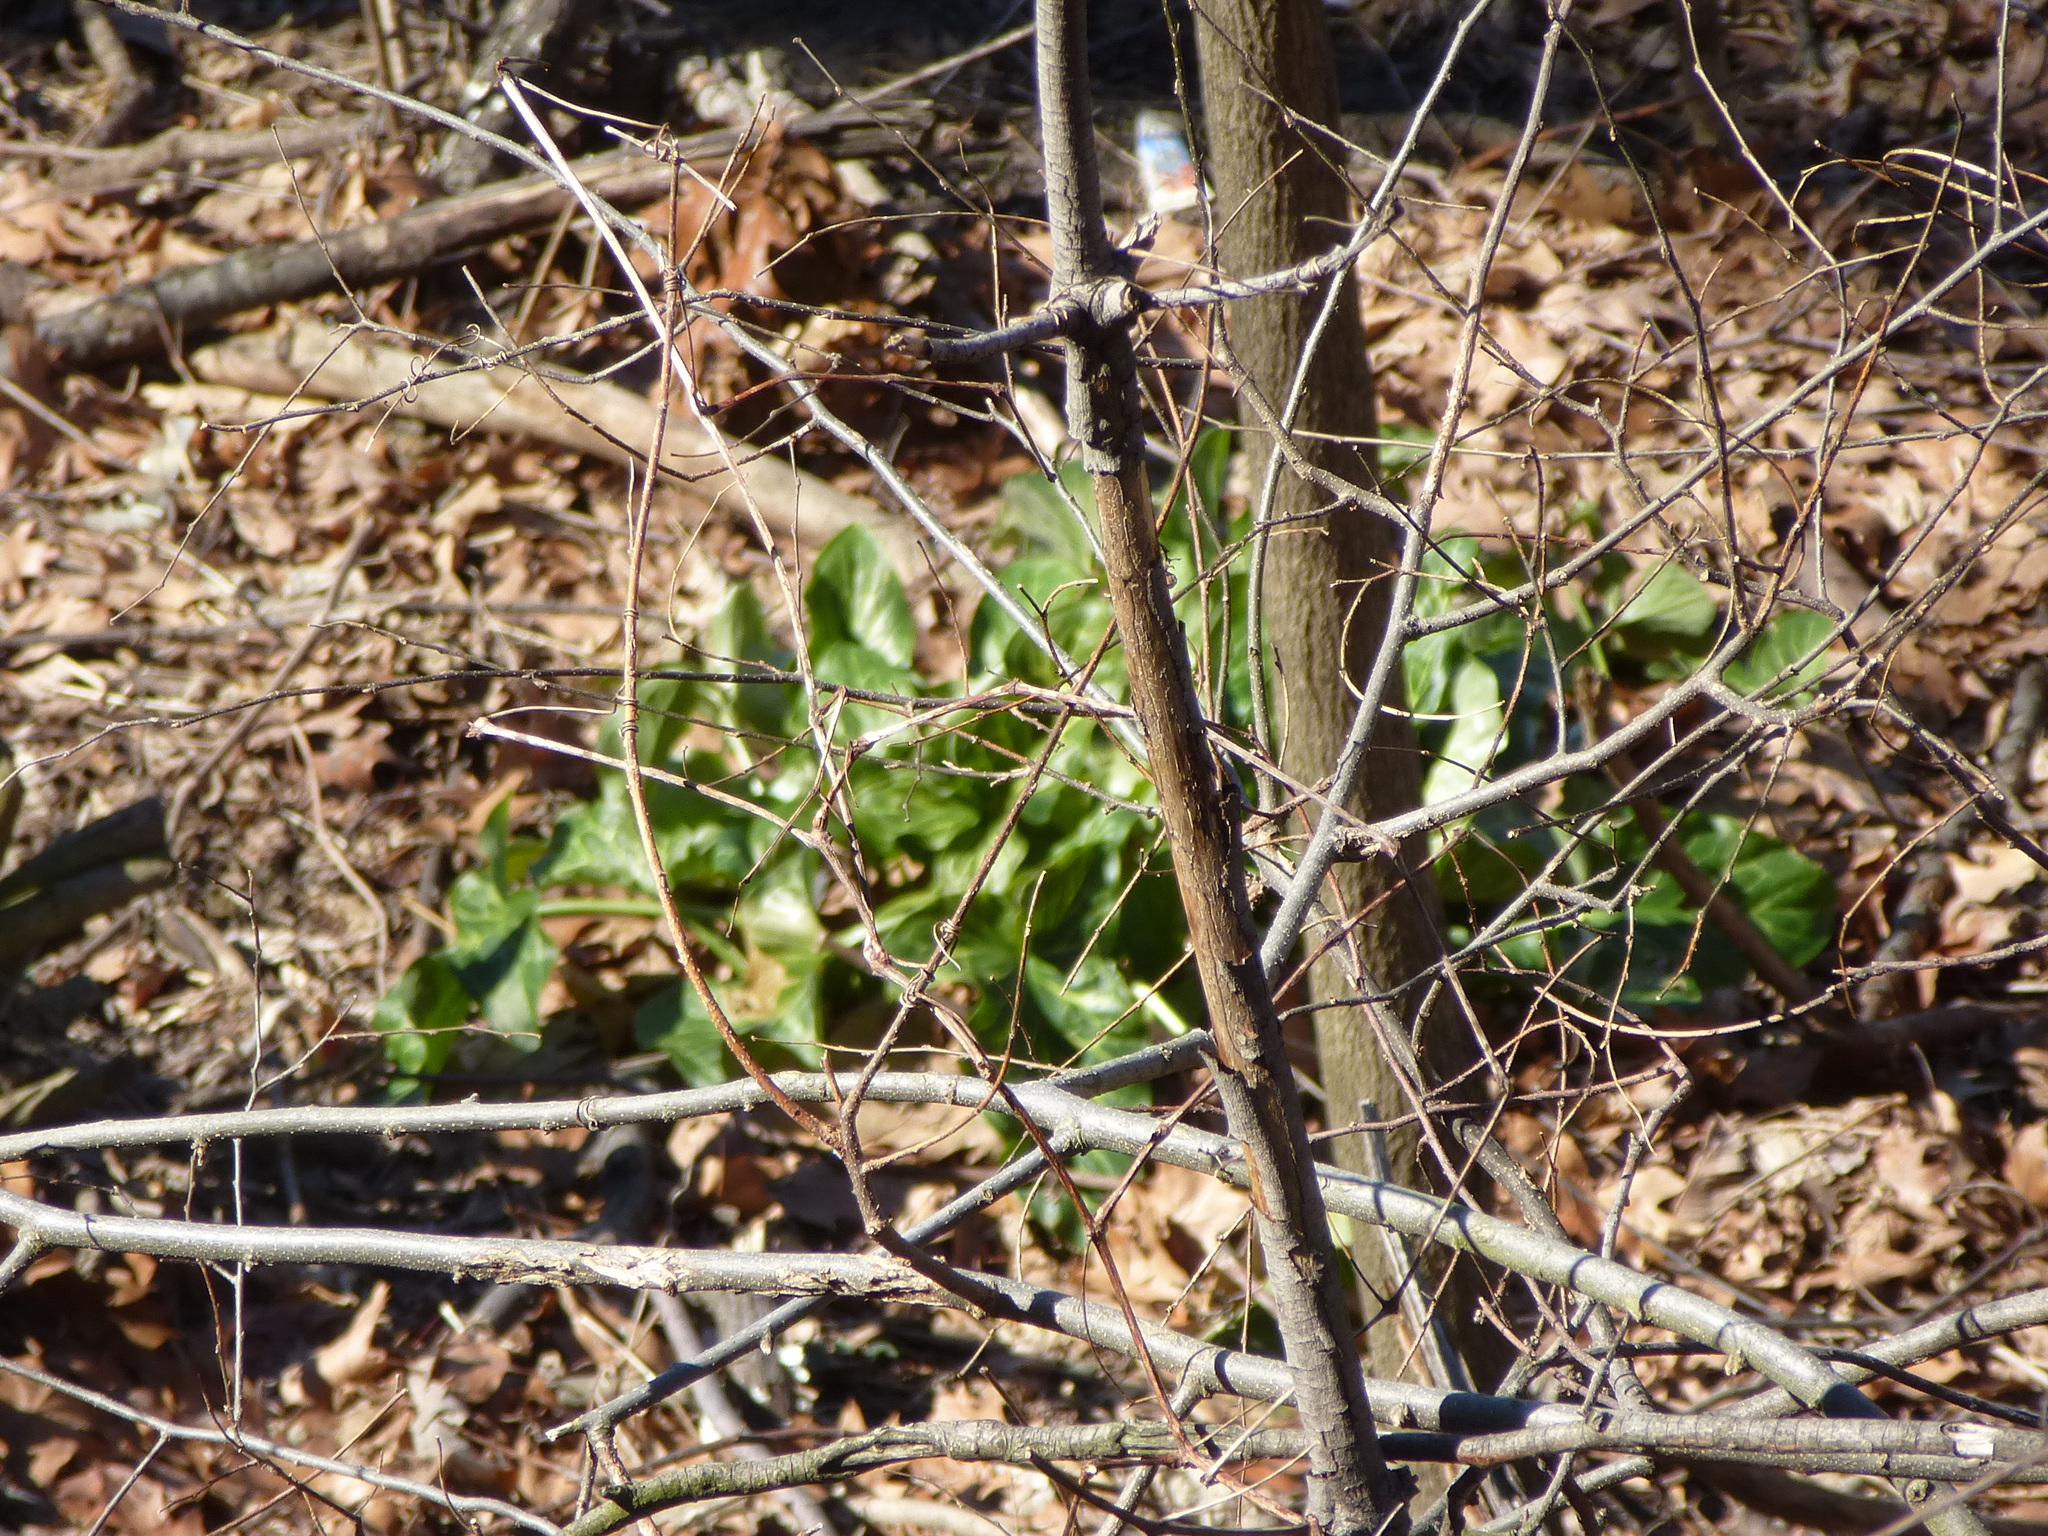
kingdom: Plantae
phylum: Tracheophyta
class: Liliopsida
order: Alismatales
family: Araceae
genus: Arum
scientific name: Arum italicum
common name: Italian lords-and-ladies
